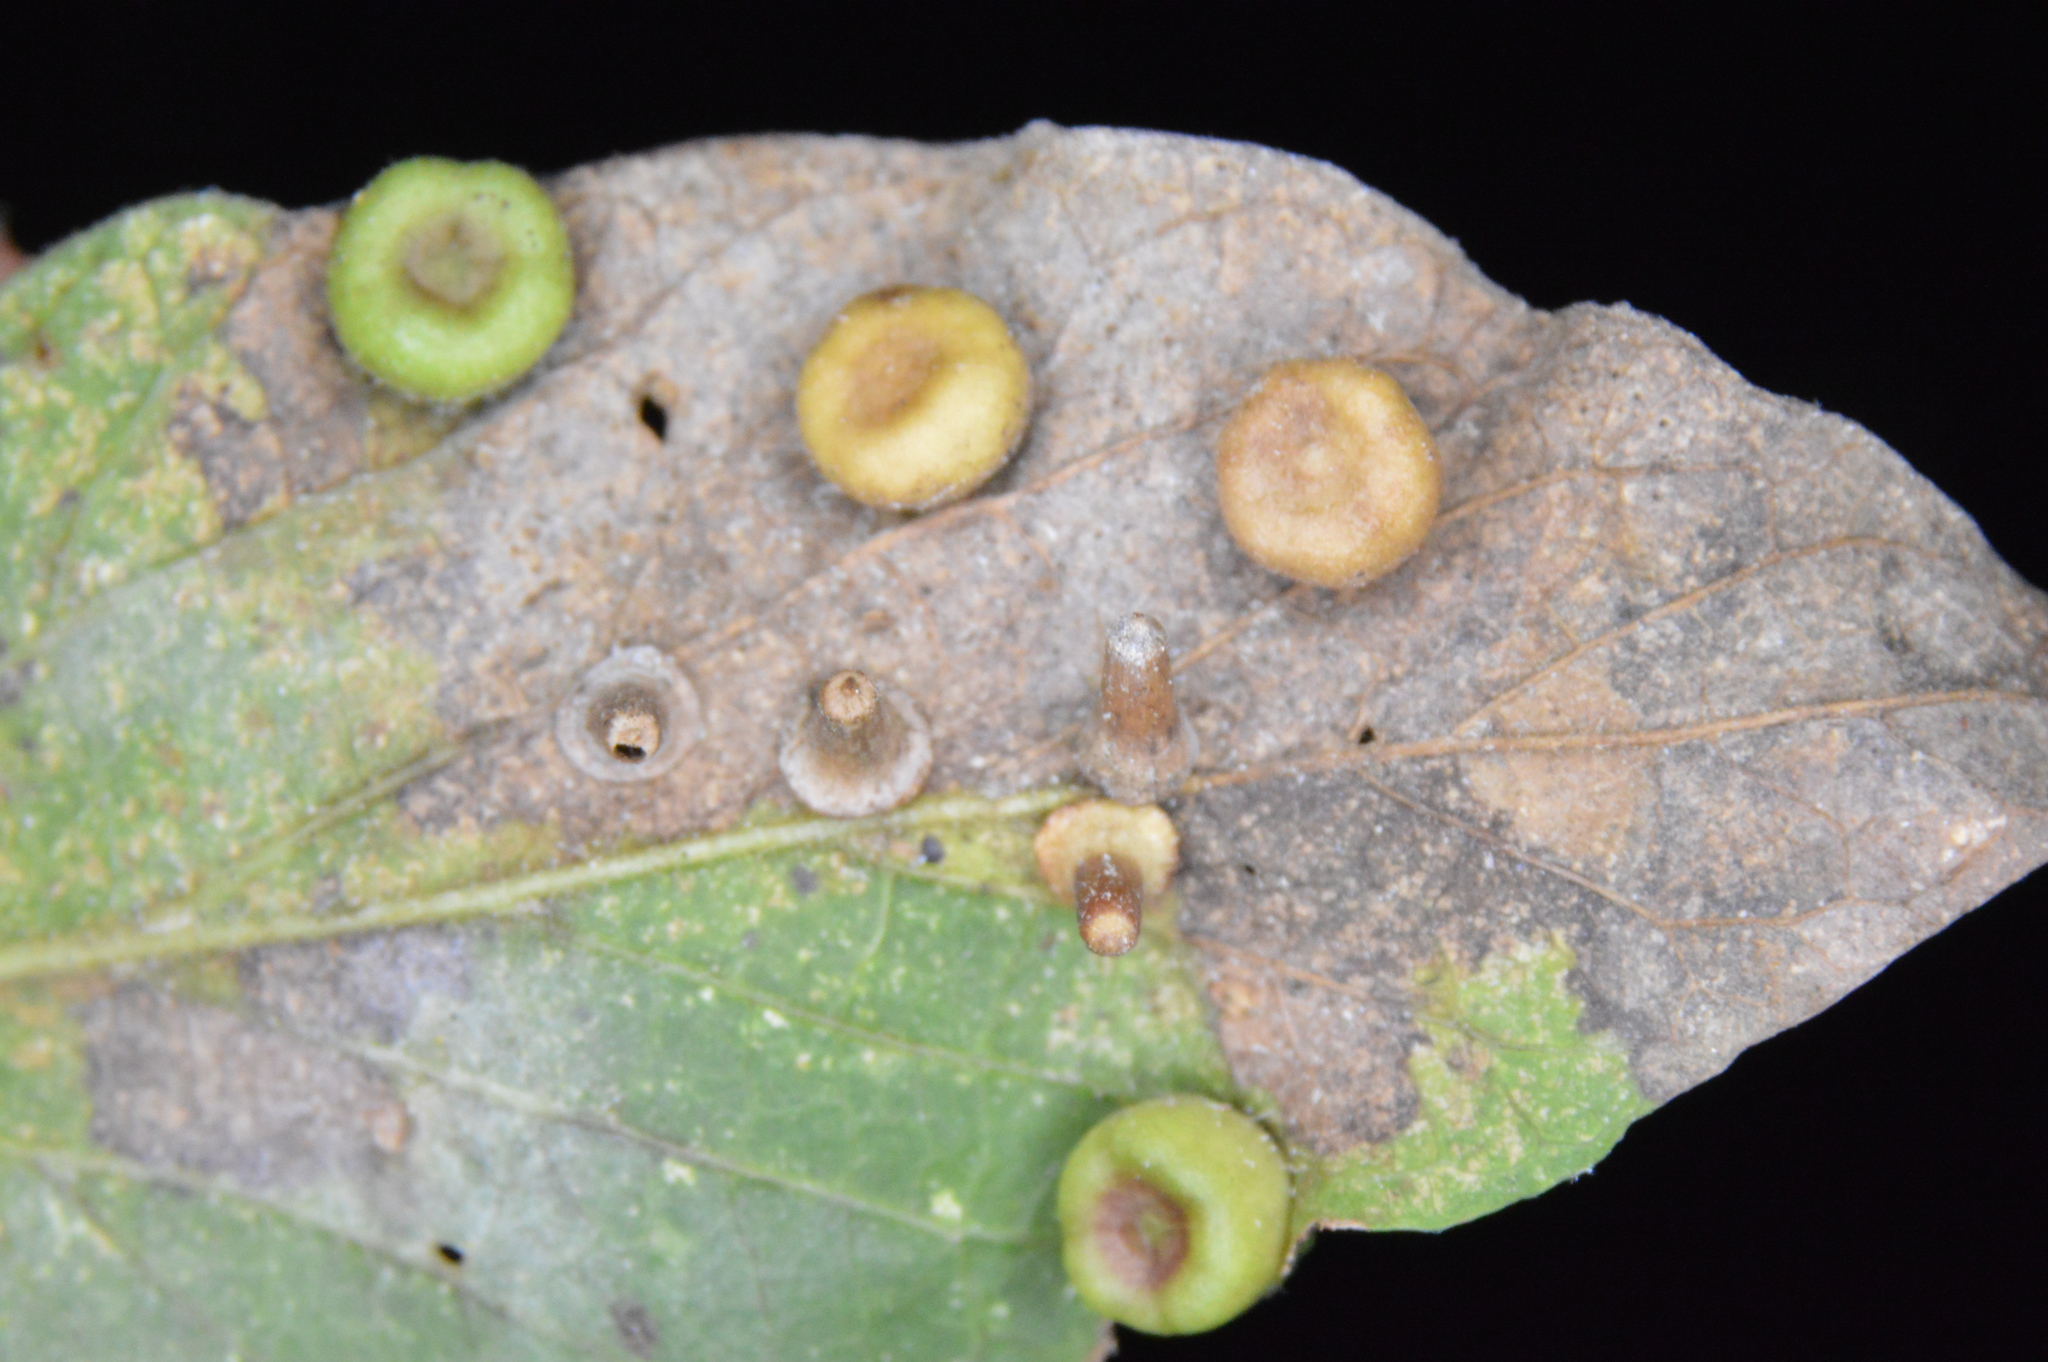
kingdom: Animalia
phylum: Arthropoda
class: Insecta
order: Diptera
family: Cecidomyiidae
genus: Celticecis
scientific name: Celticecis aciculata
